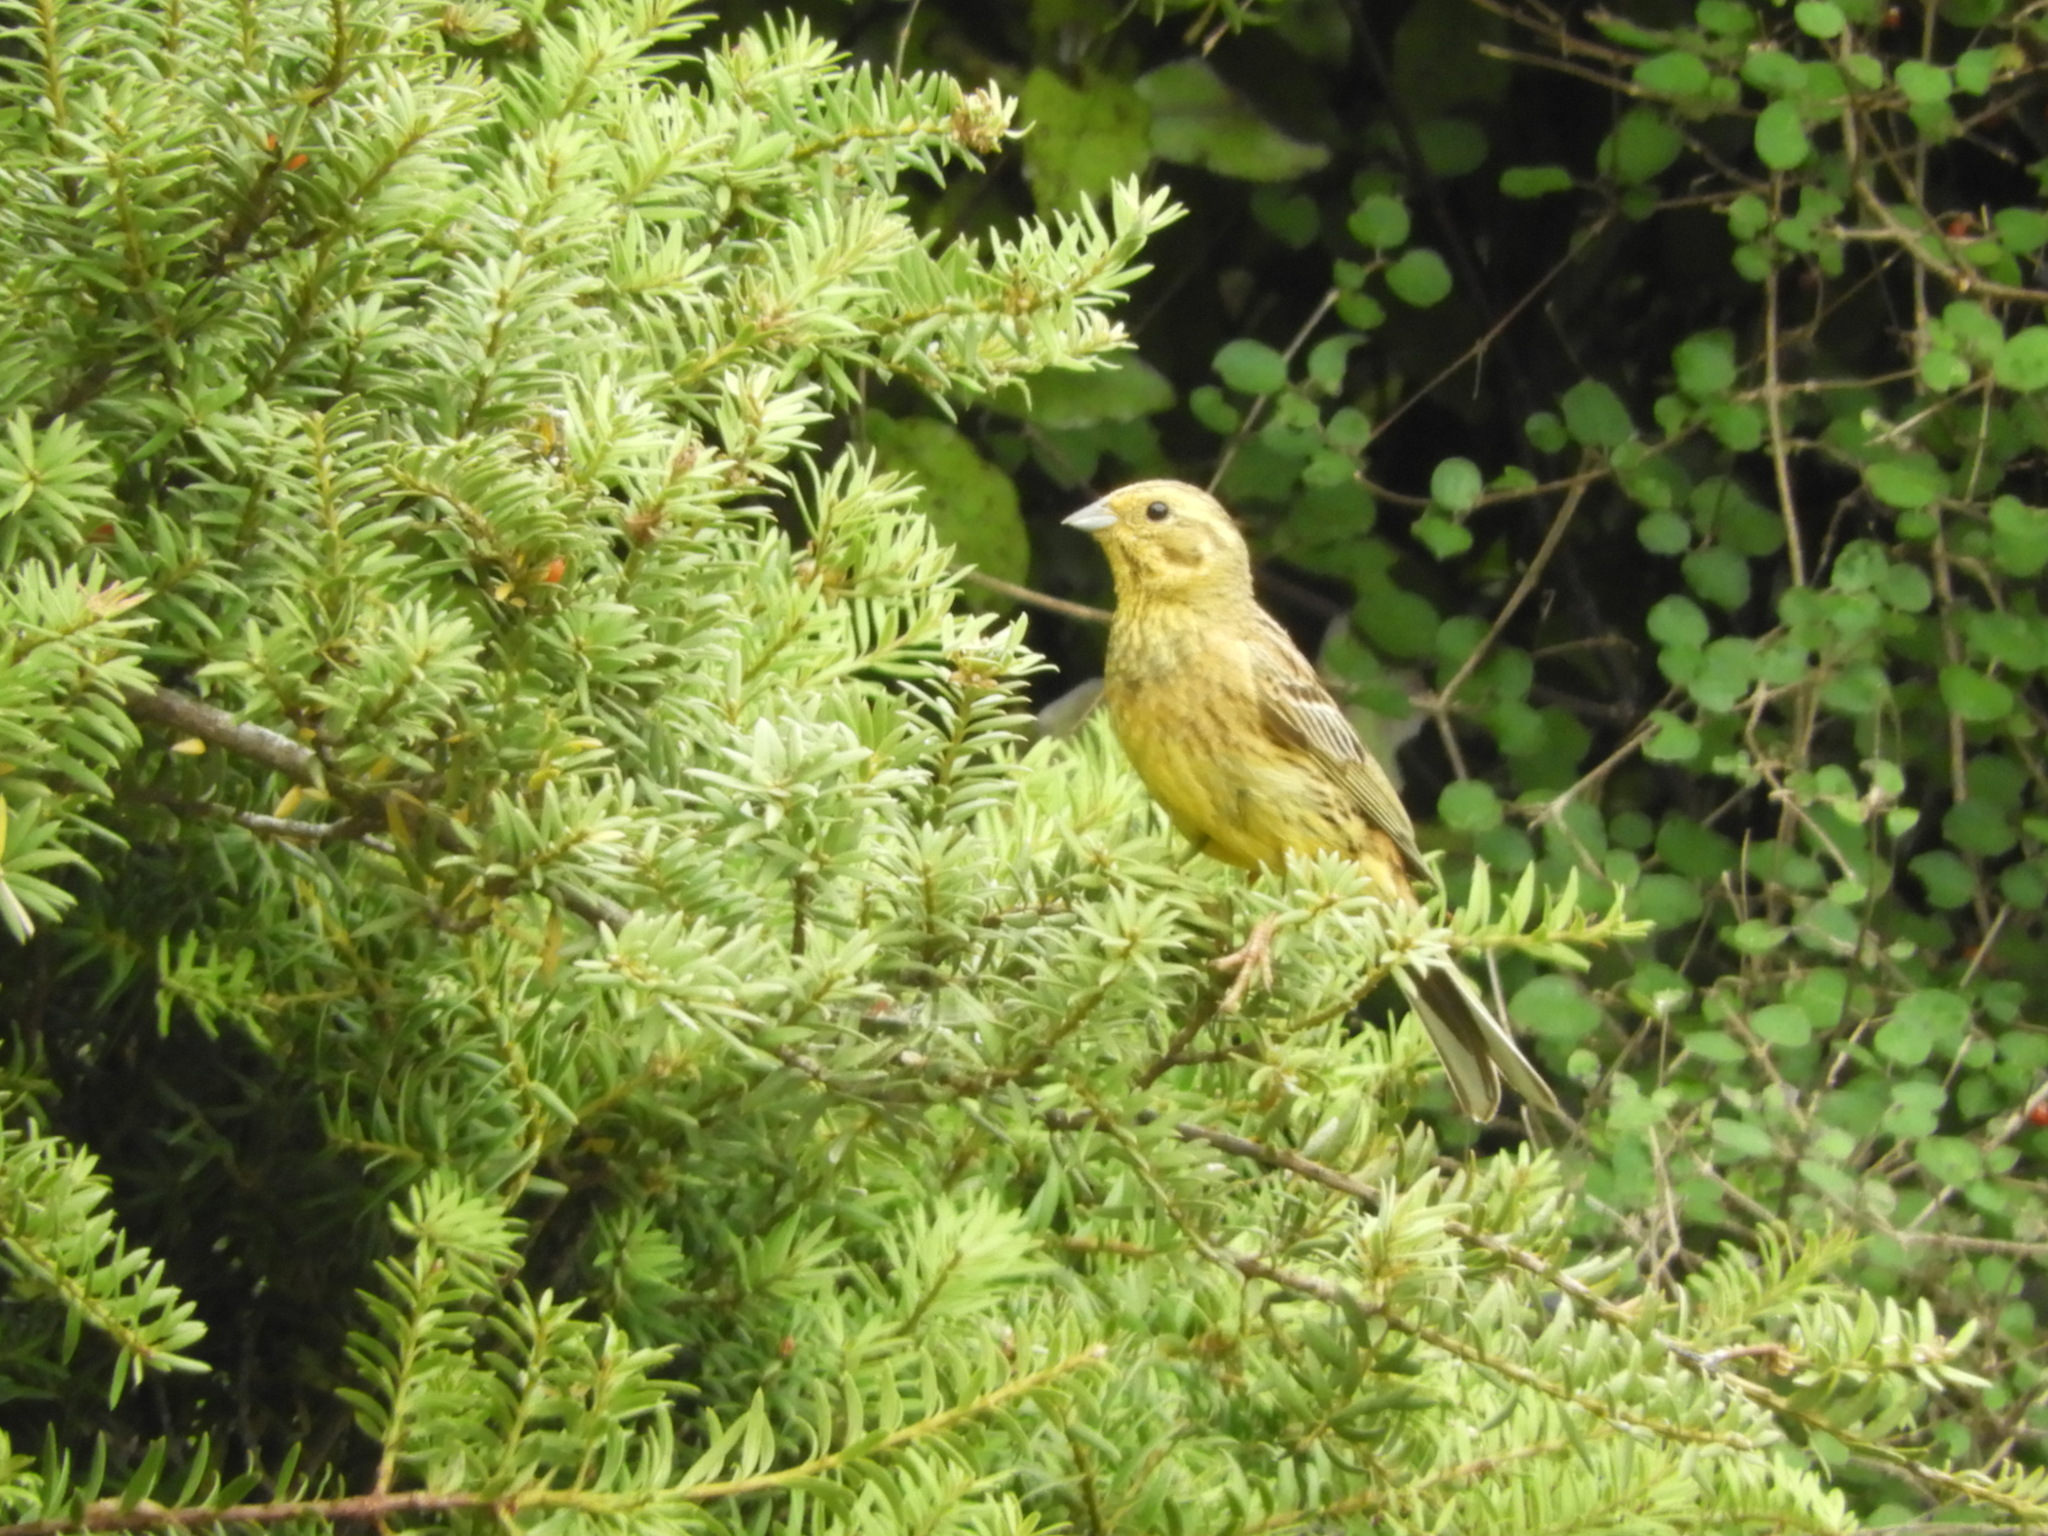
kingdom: Animalia
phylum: Chordata
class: Aves
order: Passeriformes
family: Emberizidae
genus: Emberiza
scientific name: Emberiza citrinella
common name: Yellowhammer
